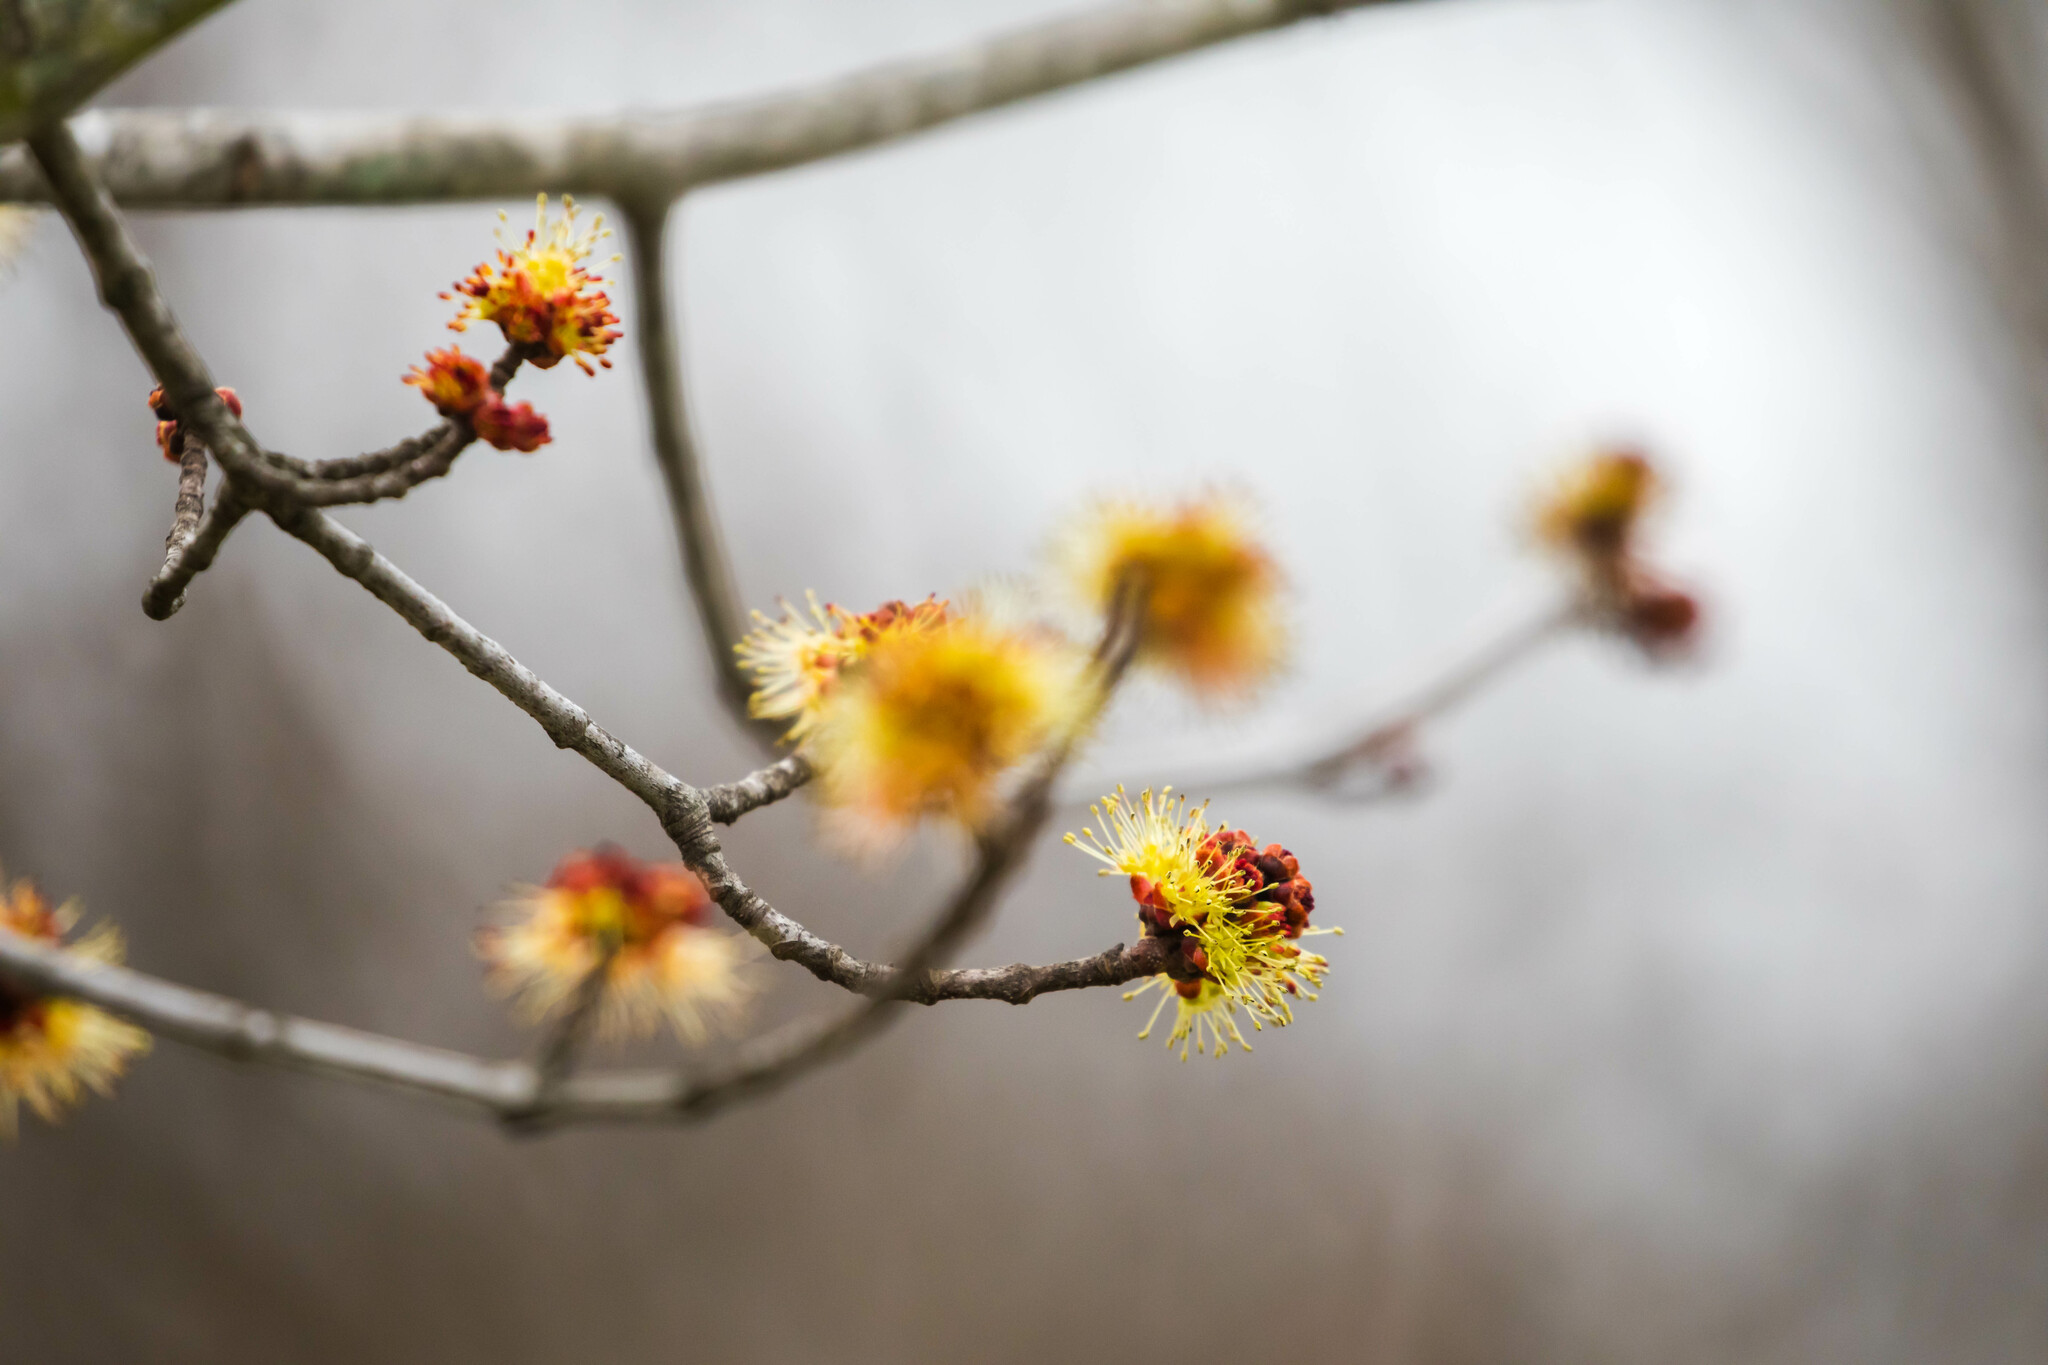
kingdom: Plantae
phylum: Tracheophyta
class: Magnoliopsida
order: Sapindales
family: Sapindaceae
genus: Acer
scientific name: Acer rubrum
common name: Red maple
